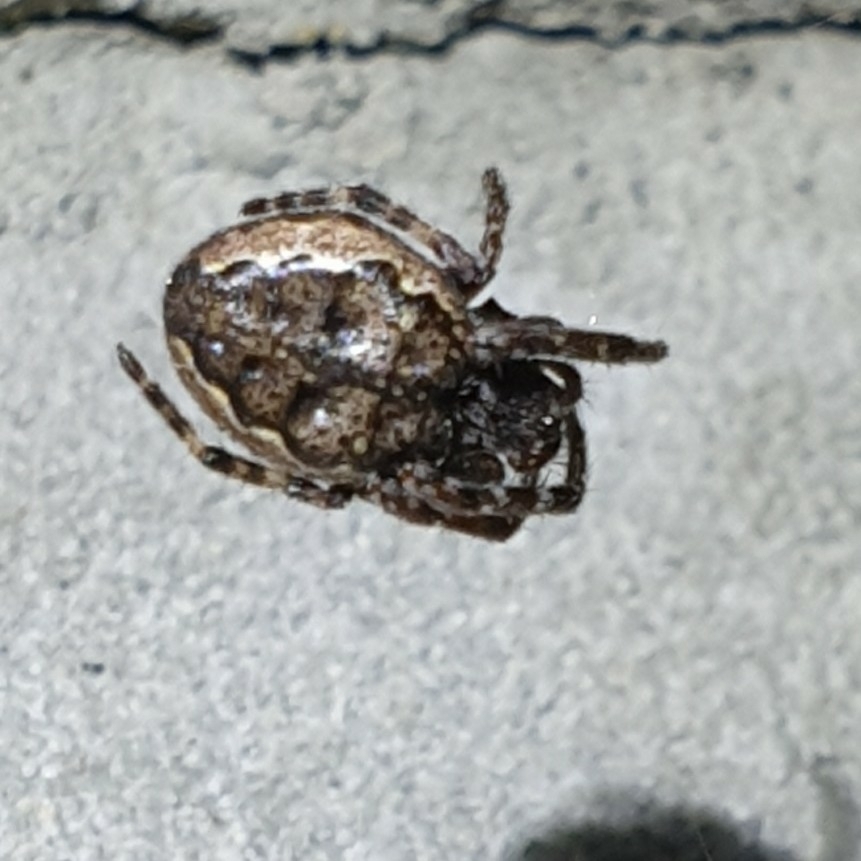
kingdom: Animalia
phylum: Arthropoda
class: Arachnida
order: Araneae
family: Araneidae
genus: Nuctenea
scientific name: Nuctenea umbratica
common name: Toad spider
